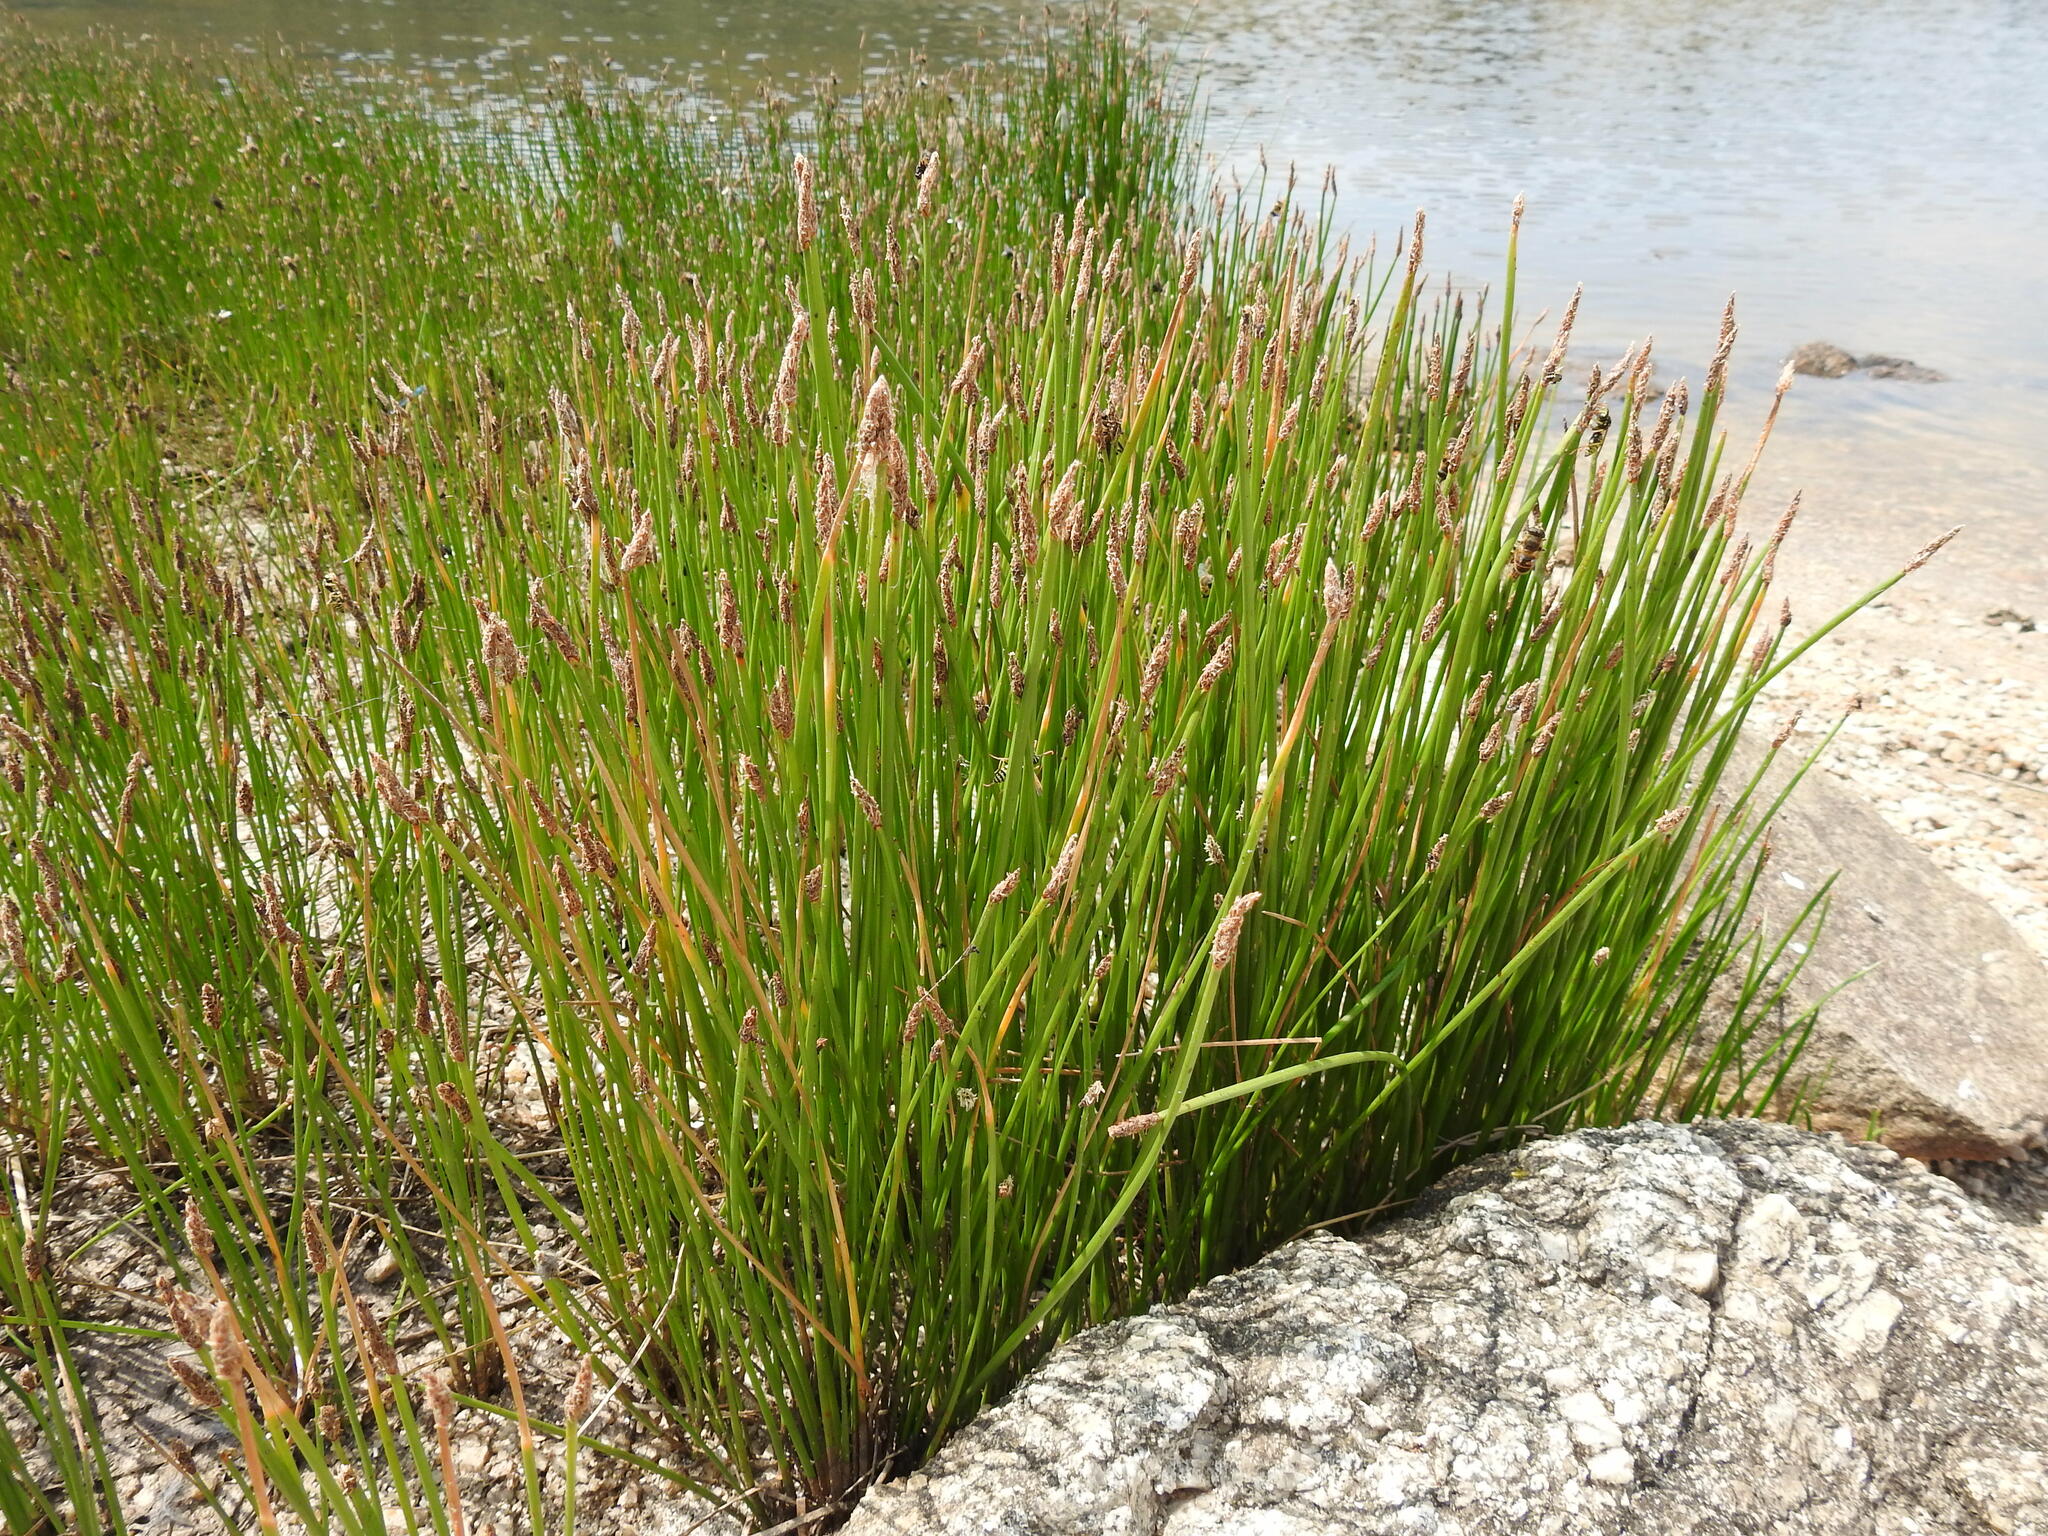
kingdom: Plantae
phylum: Tracheophyta
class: Liliopsida
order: Poales
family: Cyperaceae
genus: Eleocharis
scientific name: Eleocharis palustris
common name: Common spike-rush
